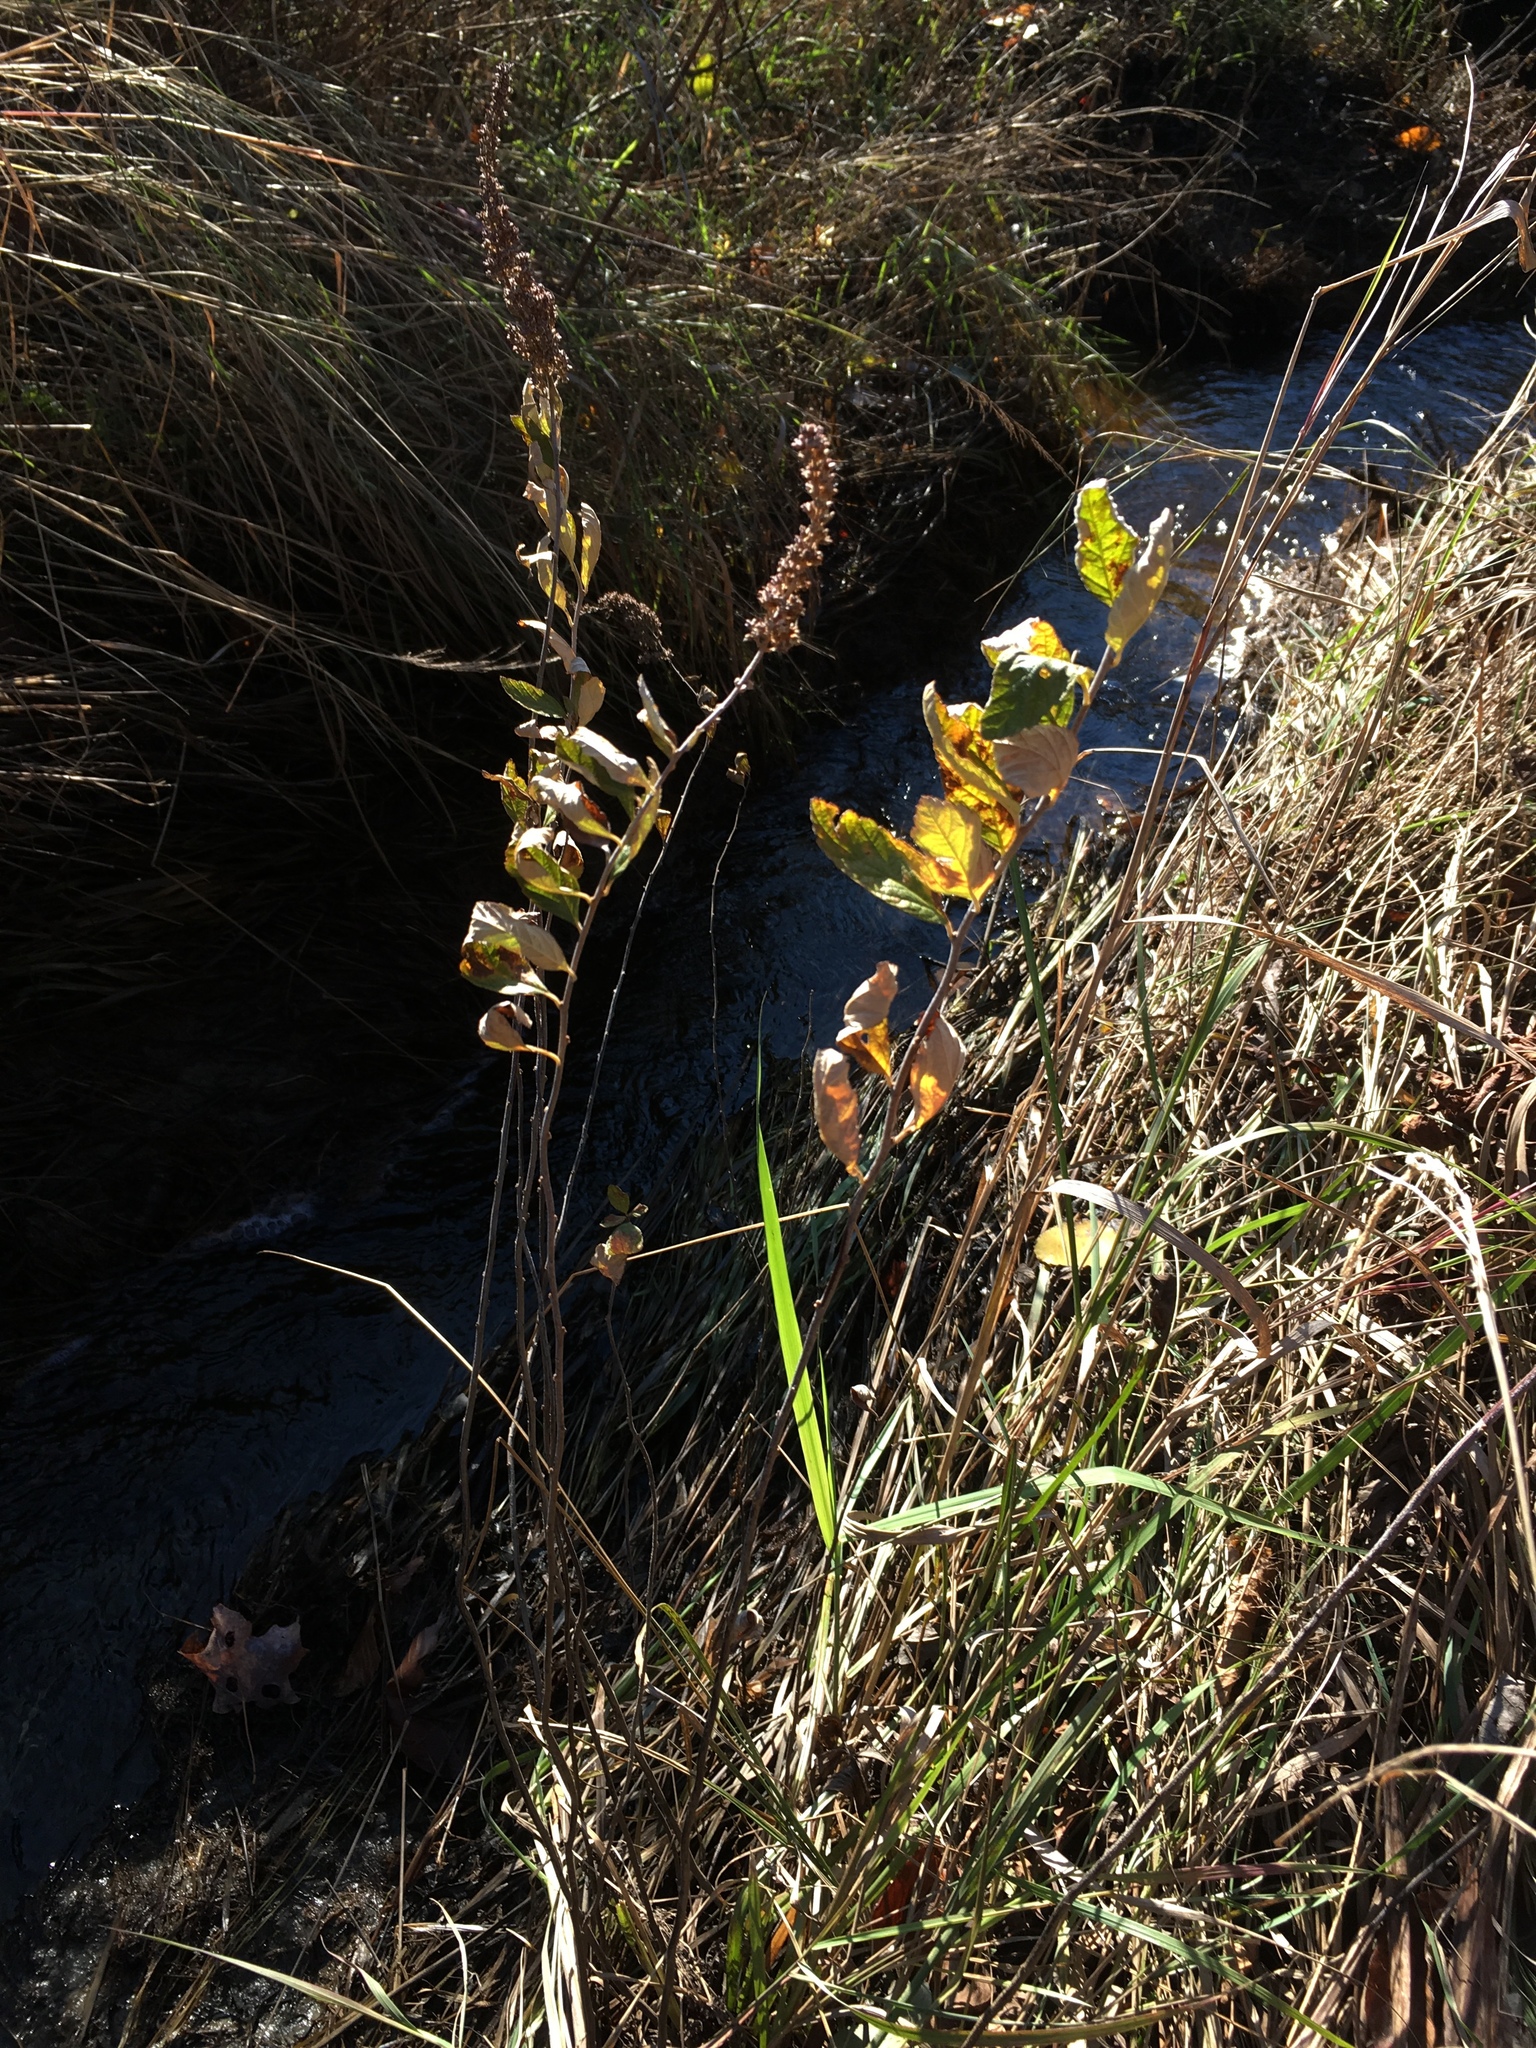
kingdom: Plantae
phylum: Tracheophyta
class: Magnoliopsida
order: Rosales
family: Rosaceae
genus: Spiraea
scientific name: Spiraea tomentosa
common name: Hardhack
